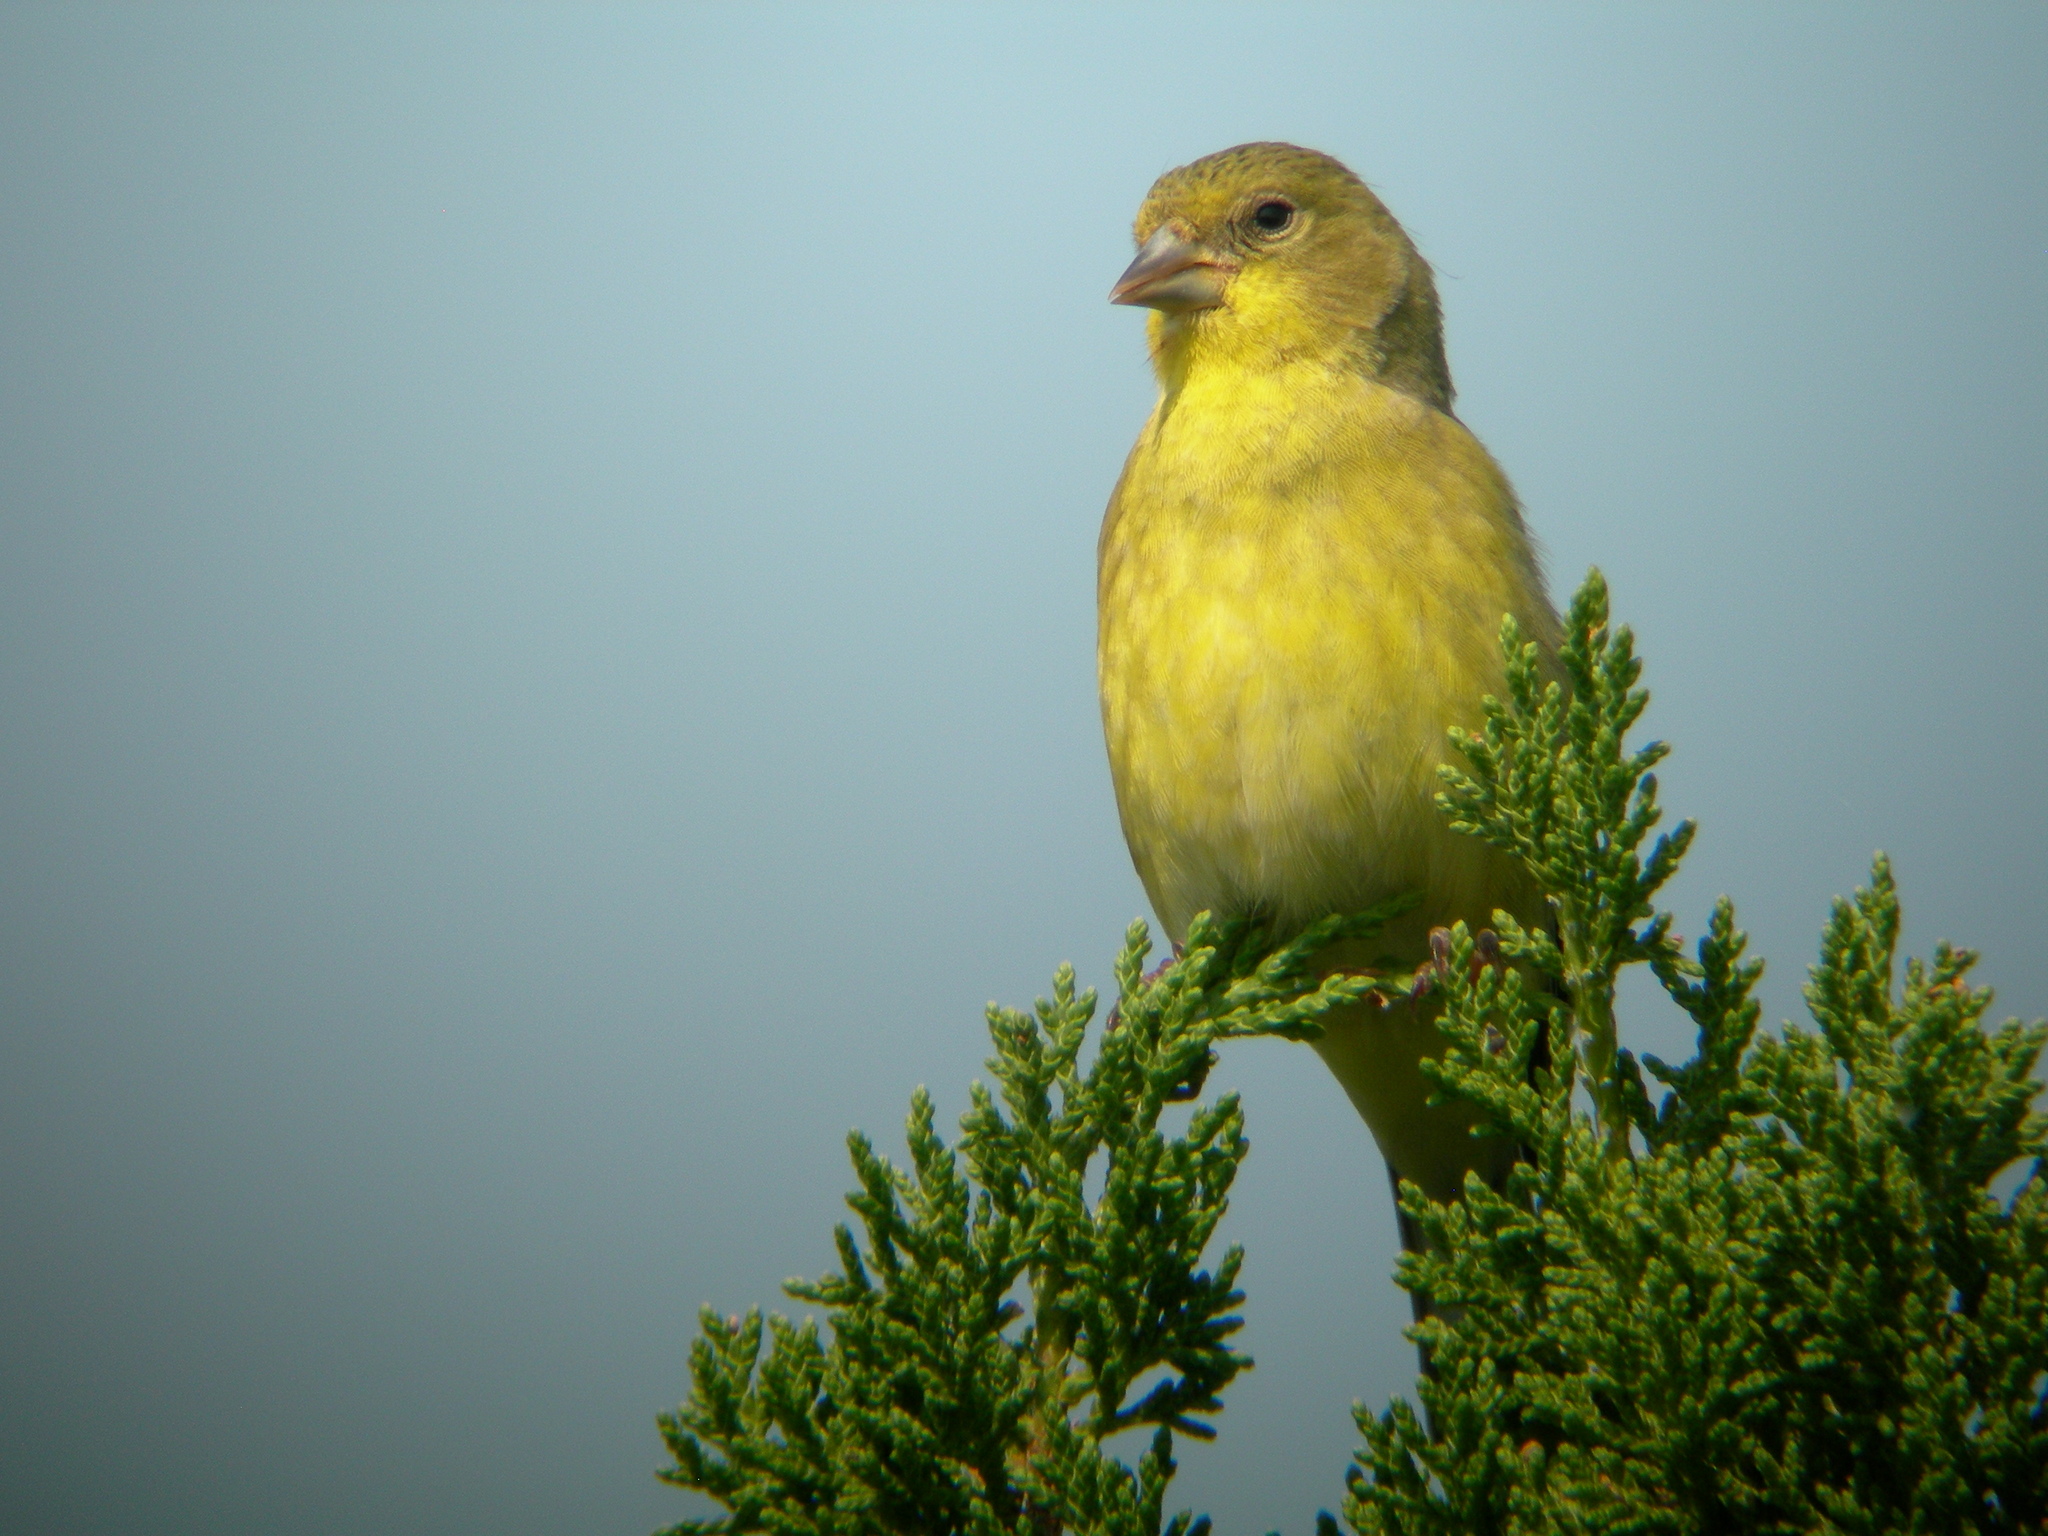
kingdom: Animalia
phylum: Chordata
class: Aves
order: Passeriformes
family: Fringillidae
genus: Spinus
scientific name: Spinus psaltria
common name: Lesser goldfinch
